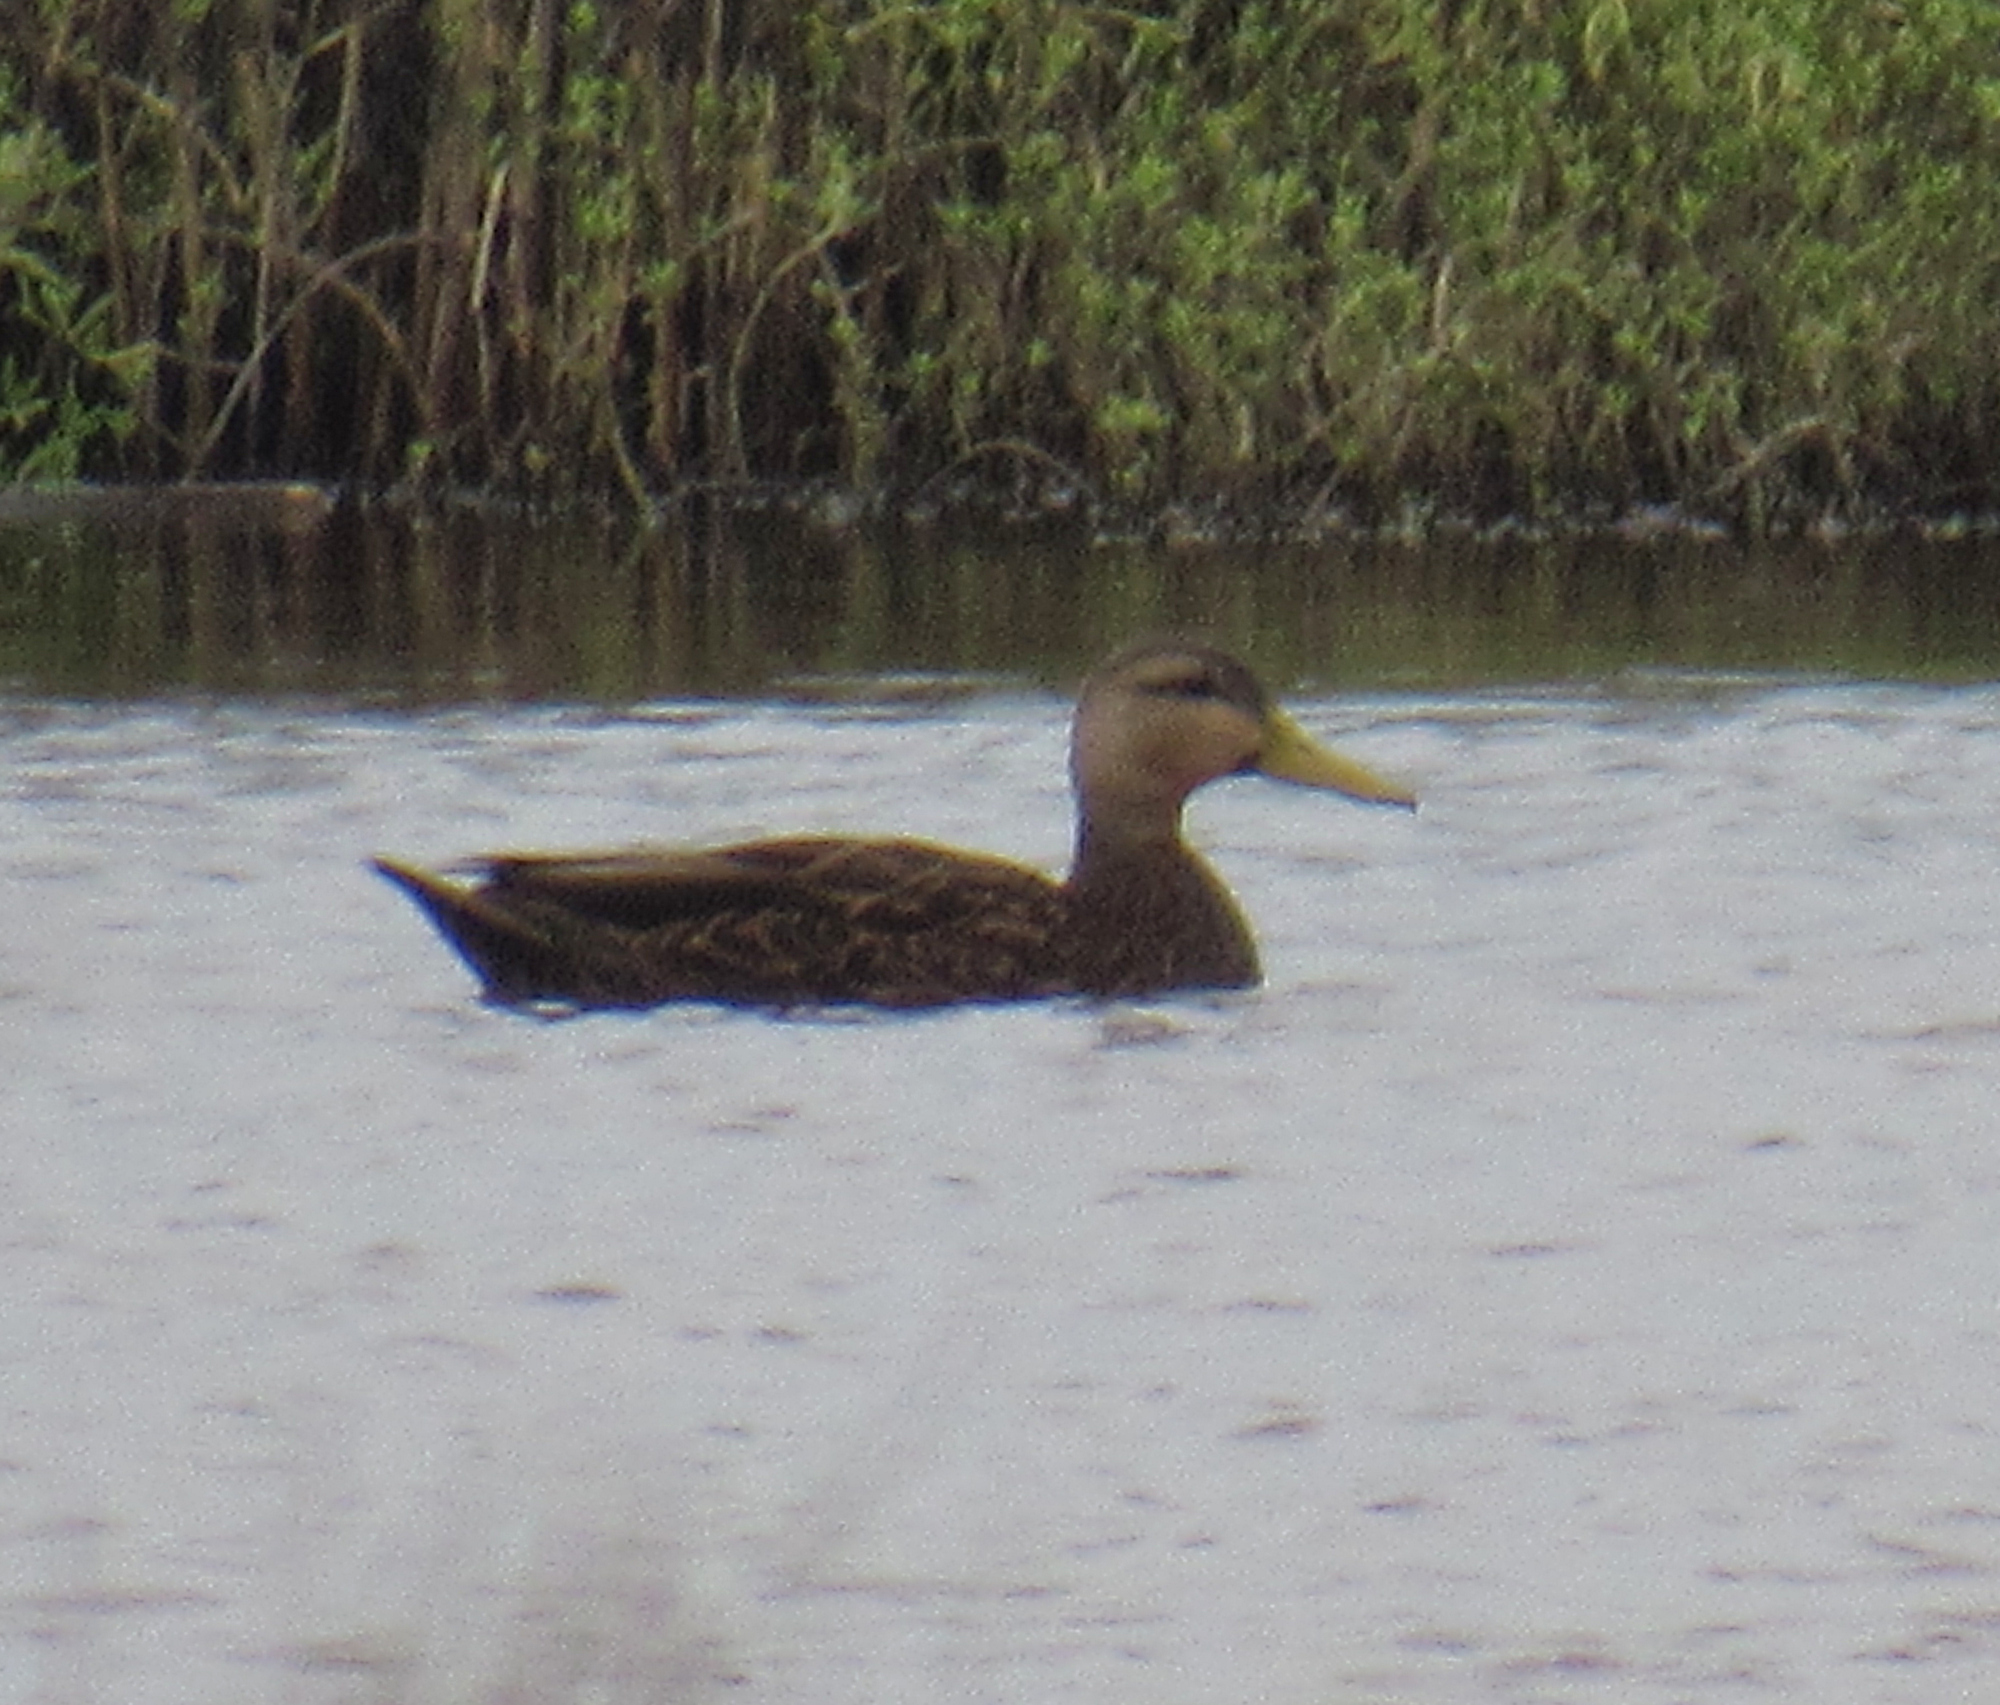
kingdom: Animalia
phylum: Chordata
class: Aves
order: Anseriformes
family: Anatidae
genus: Anas
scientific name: Anas fulvigula
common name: Mottled duck
